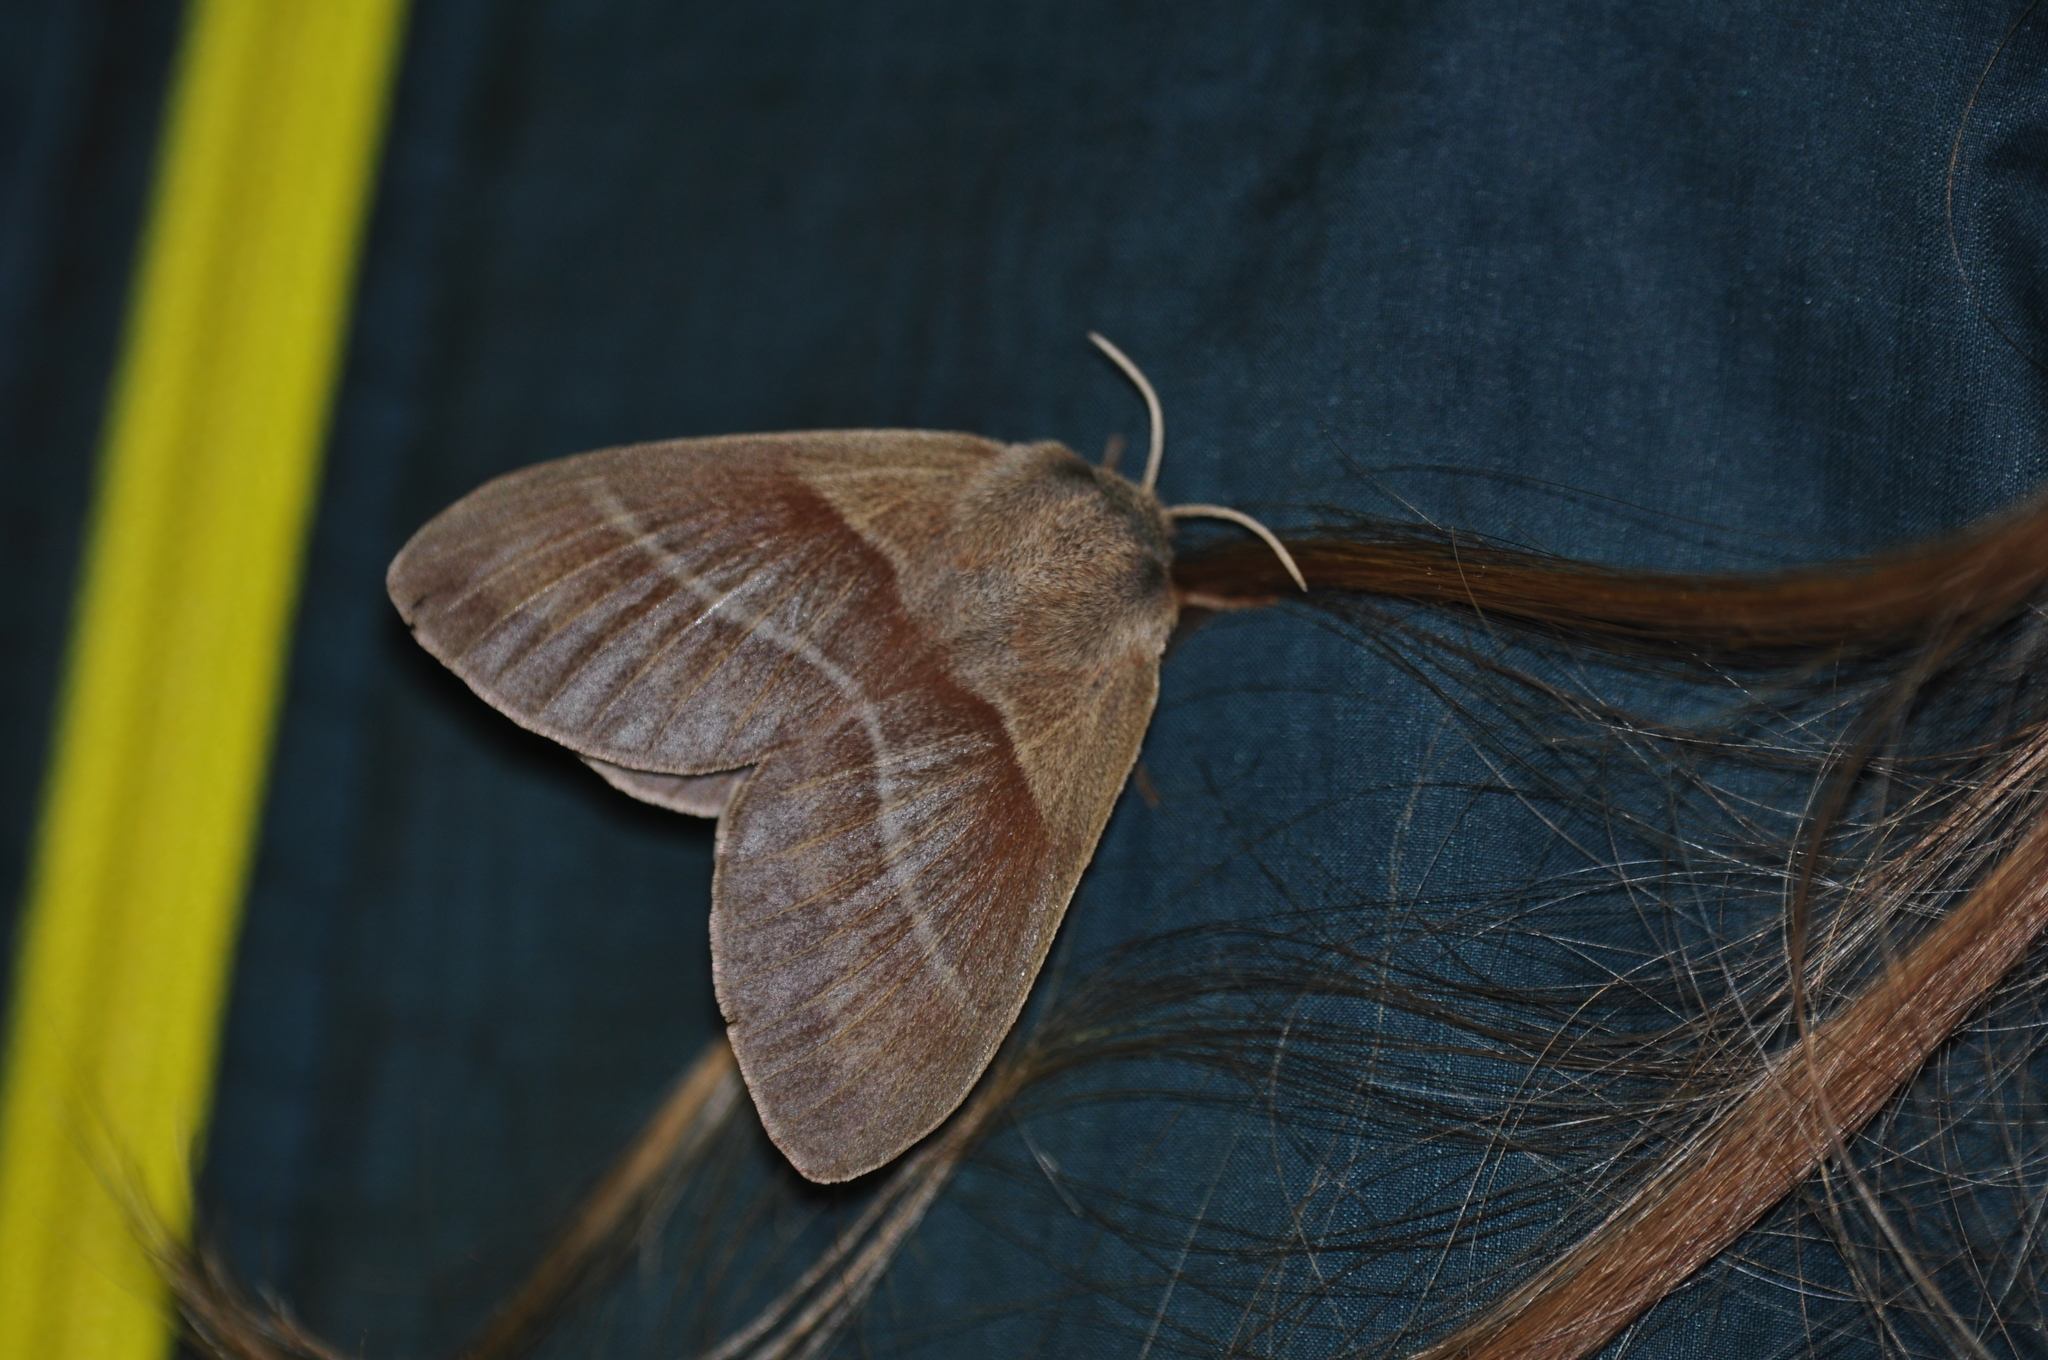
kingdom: Animalia
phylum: Arthropoda
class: Insecta
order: Lepidoptera
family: Lasiocampidae
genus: Macrothylacia
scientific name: Macrothylacia rubi
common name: Fox moth
